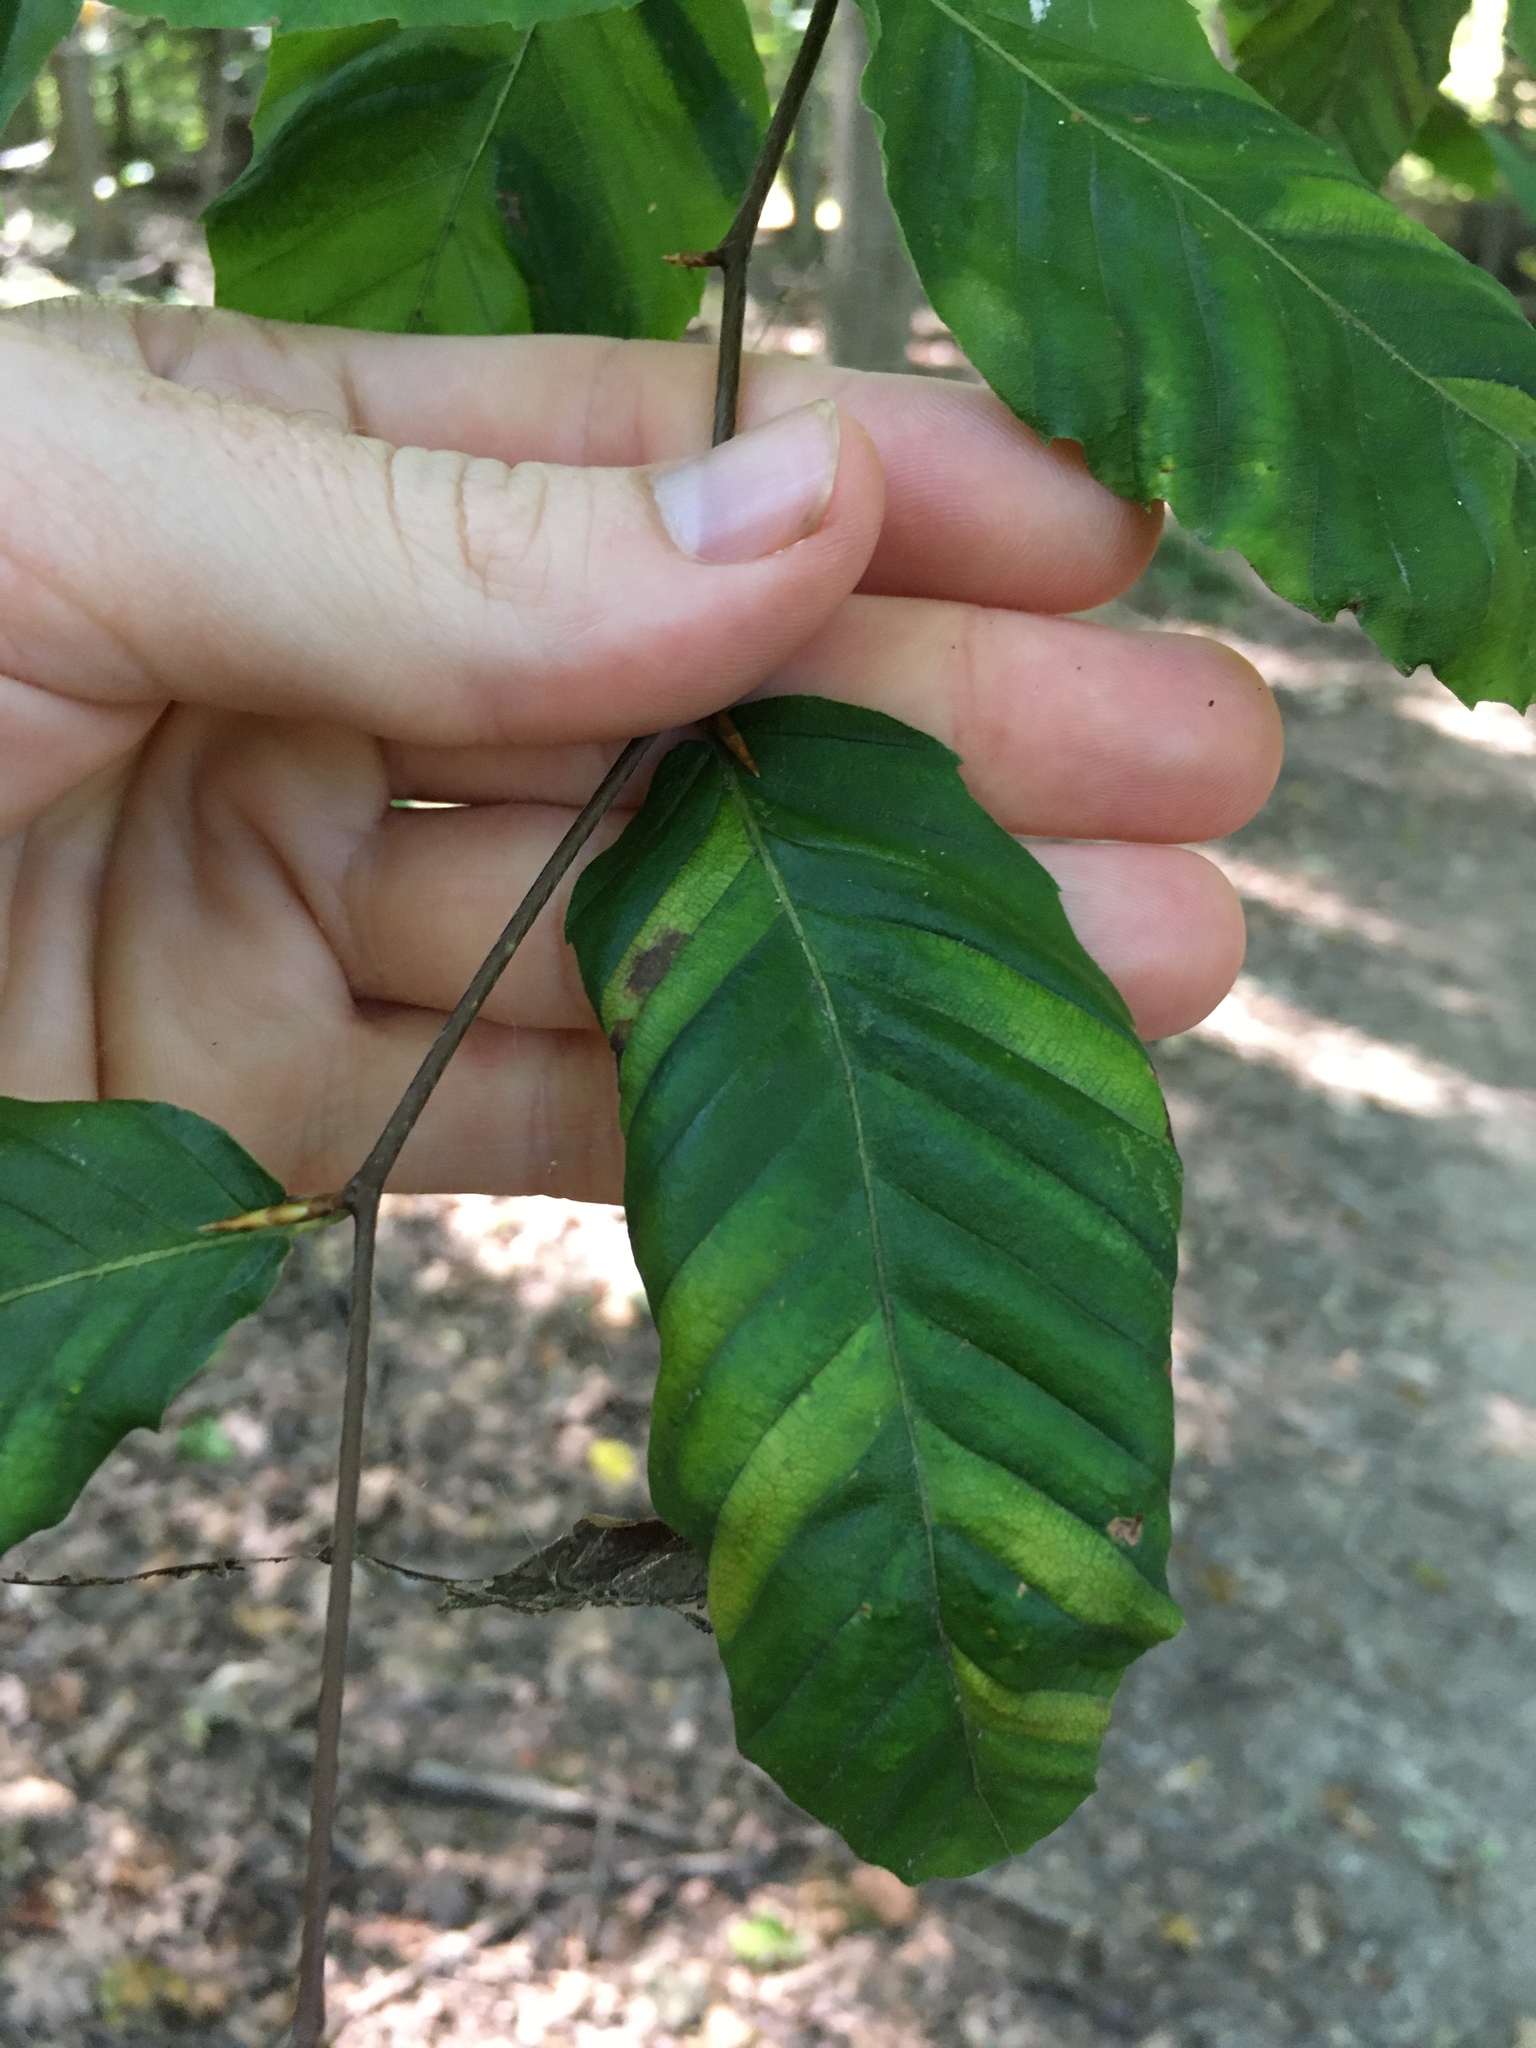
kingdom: Animalia
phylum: Nematoda
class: Chromadorea
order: Rhabditida
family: Anguinidae
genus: Litylenchus
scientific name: Litylenchus crenatae
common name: Beech leaf disease
